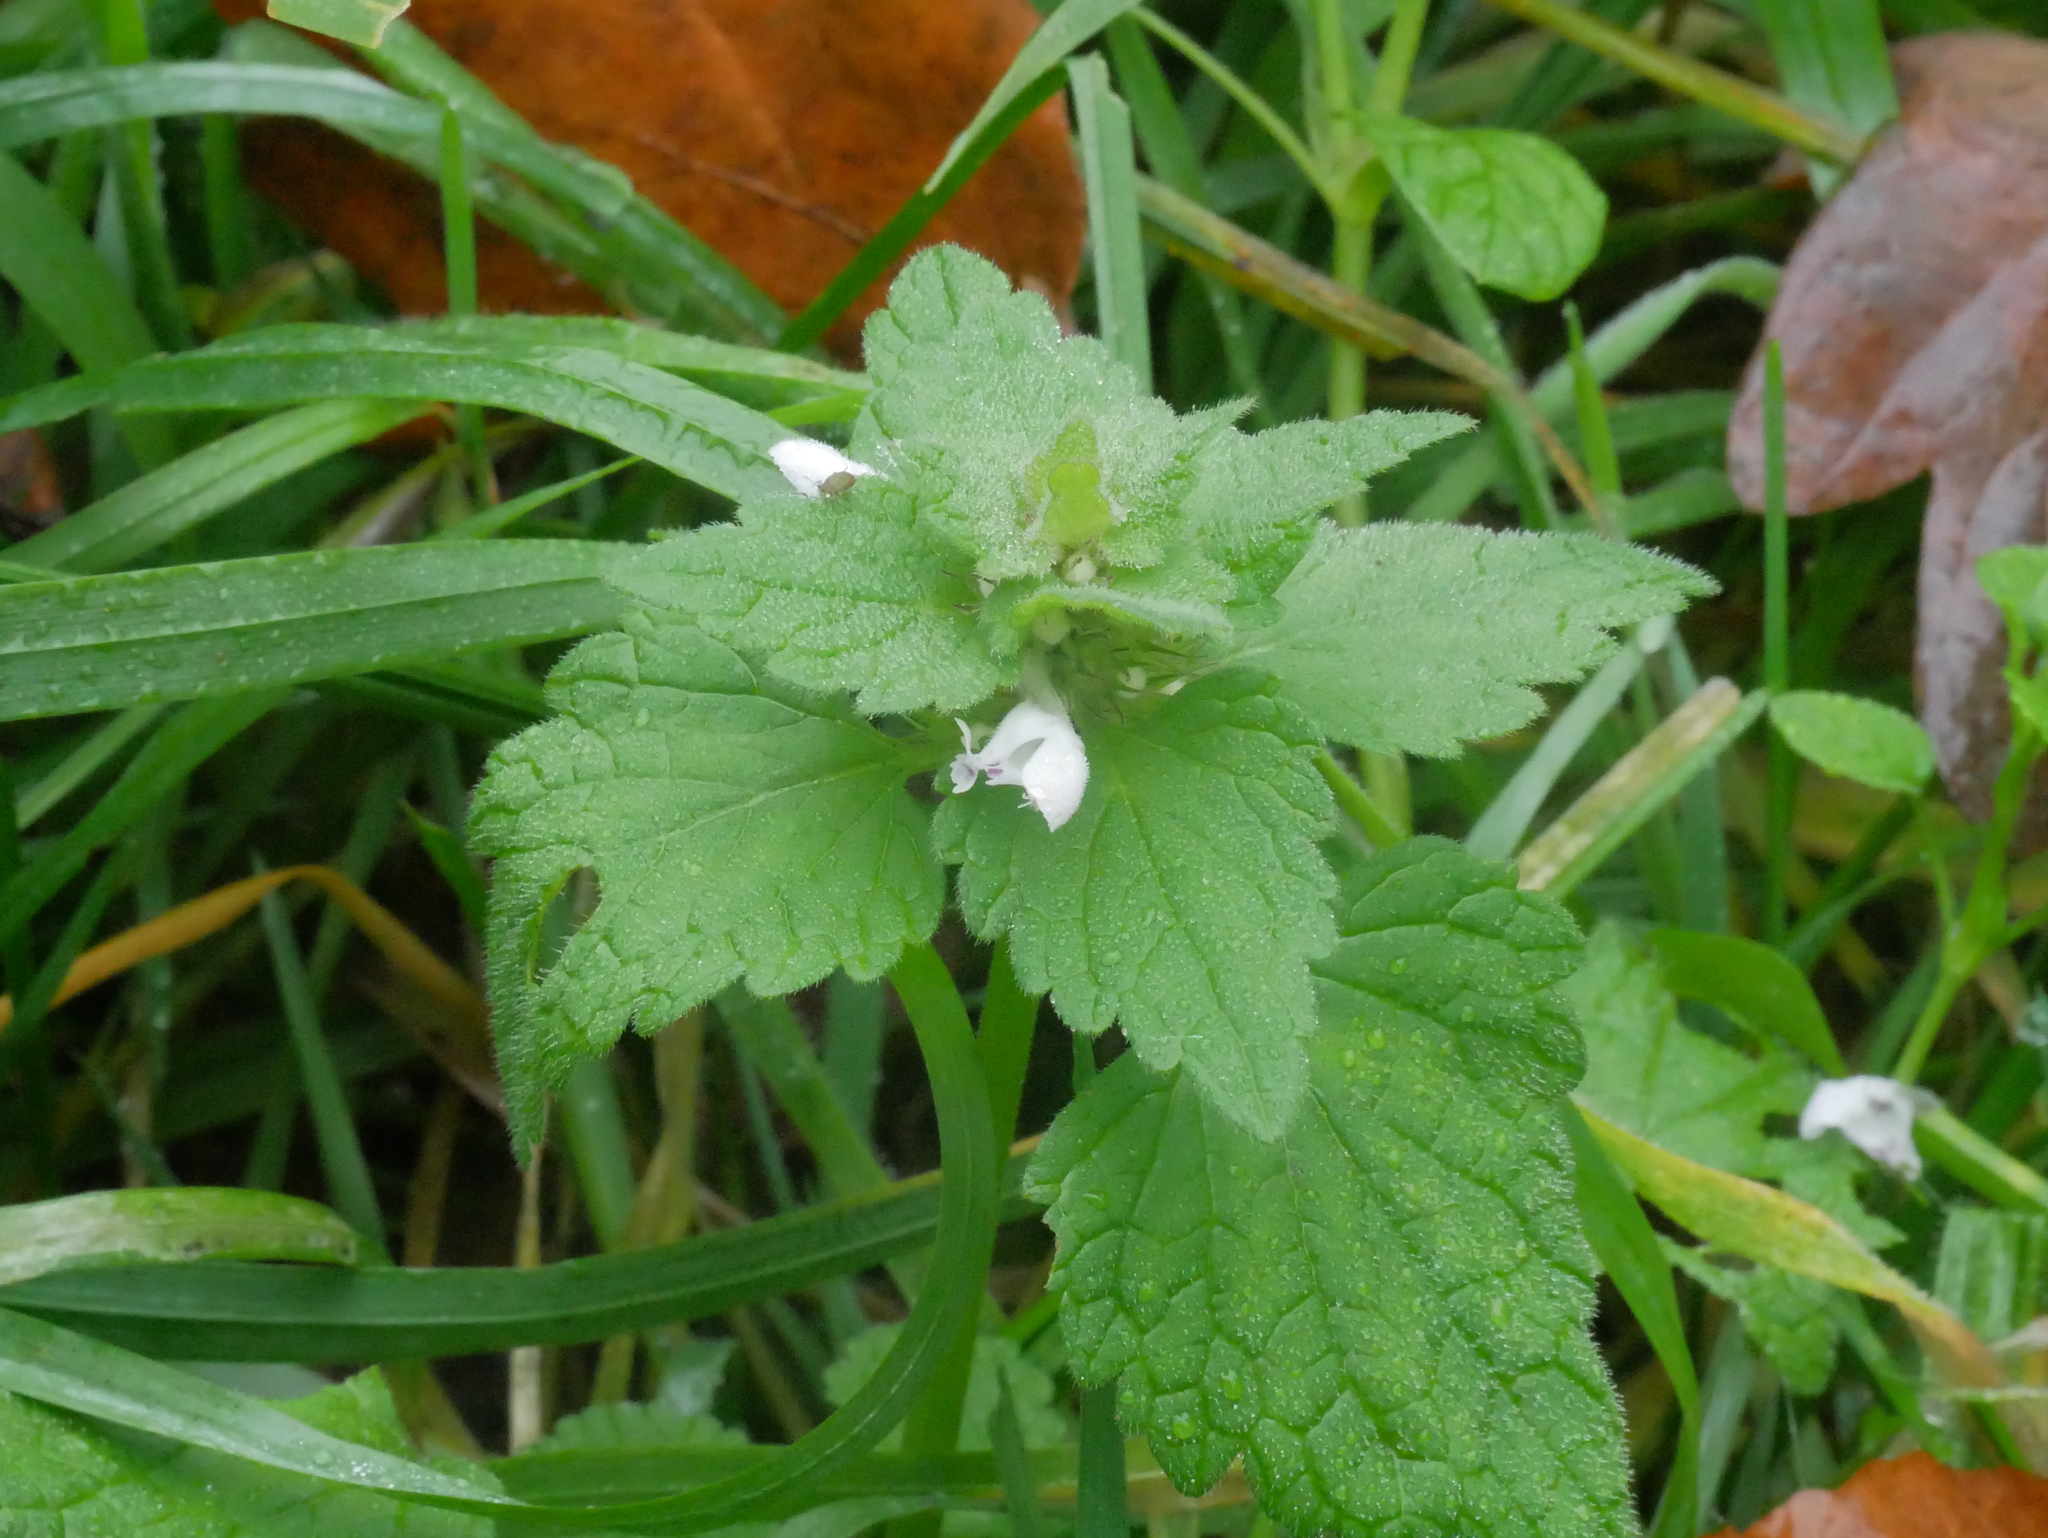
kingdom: Plantae
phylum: Tracheophyta
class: Magnoliopsida
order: Lamiales
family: Lamiaceae
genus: Lamium
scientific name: Lamium album
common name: White dead-nettle
